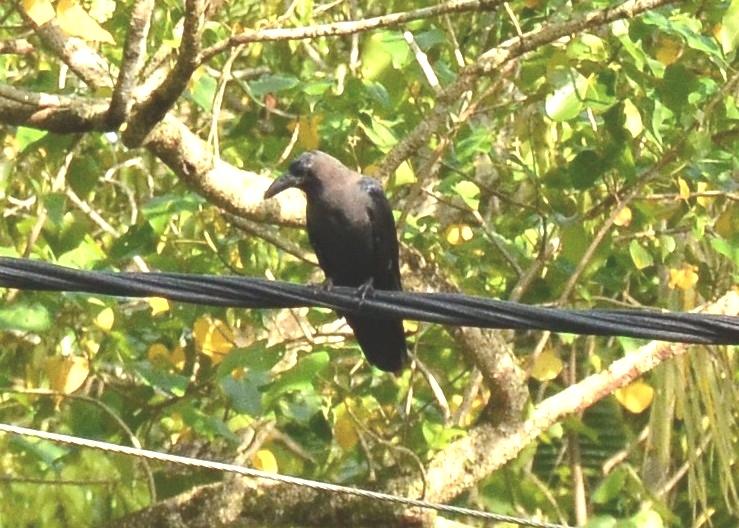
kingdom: Animalia
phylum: Chordata
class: Aves
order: Passeriformes
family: Corvidae
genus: Corvus
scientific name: Corvus splendens
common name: House crow
